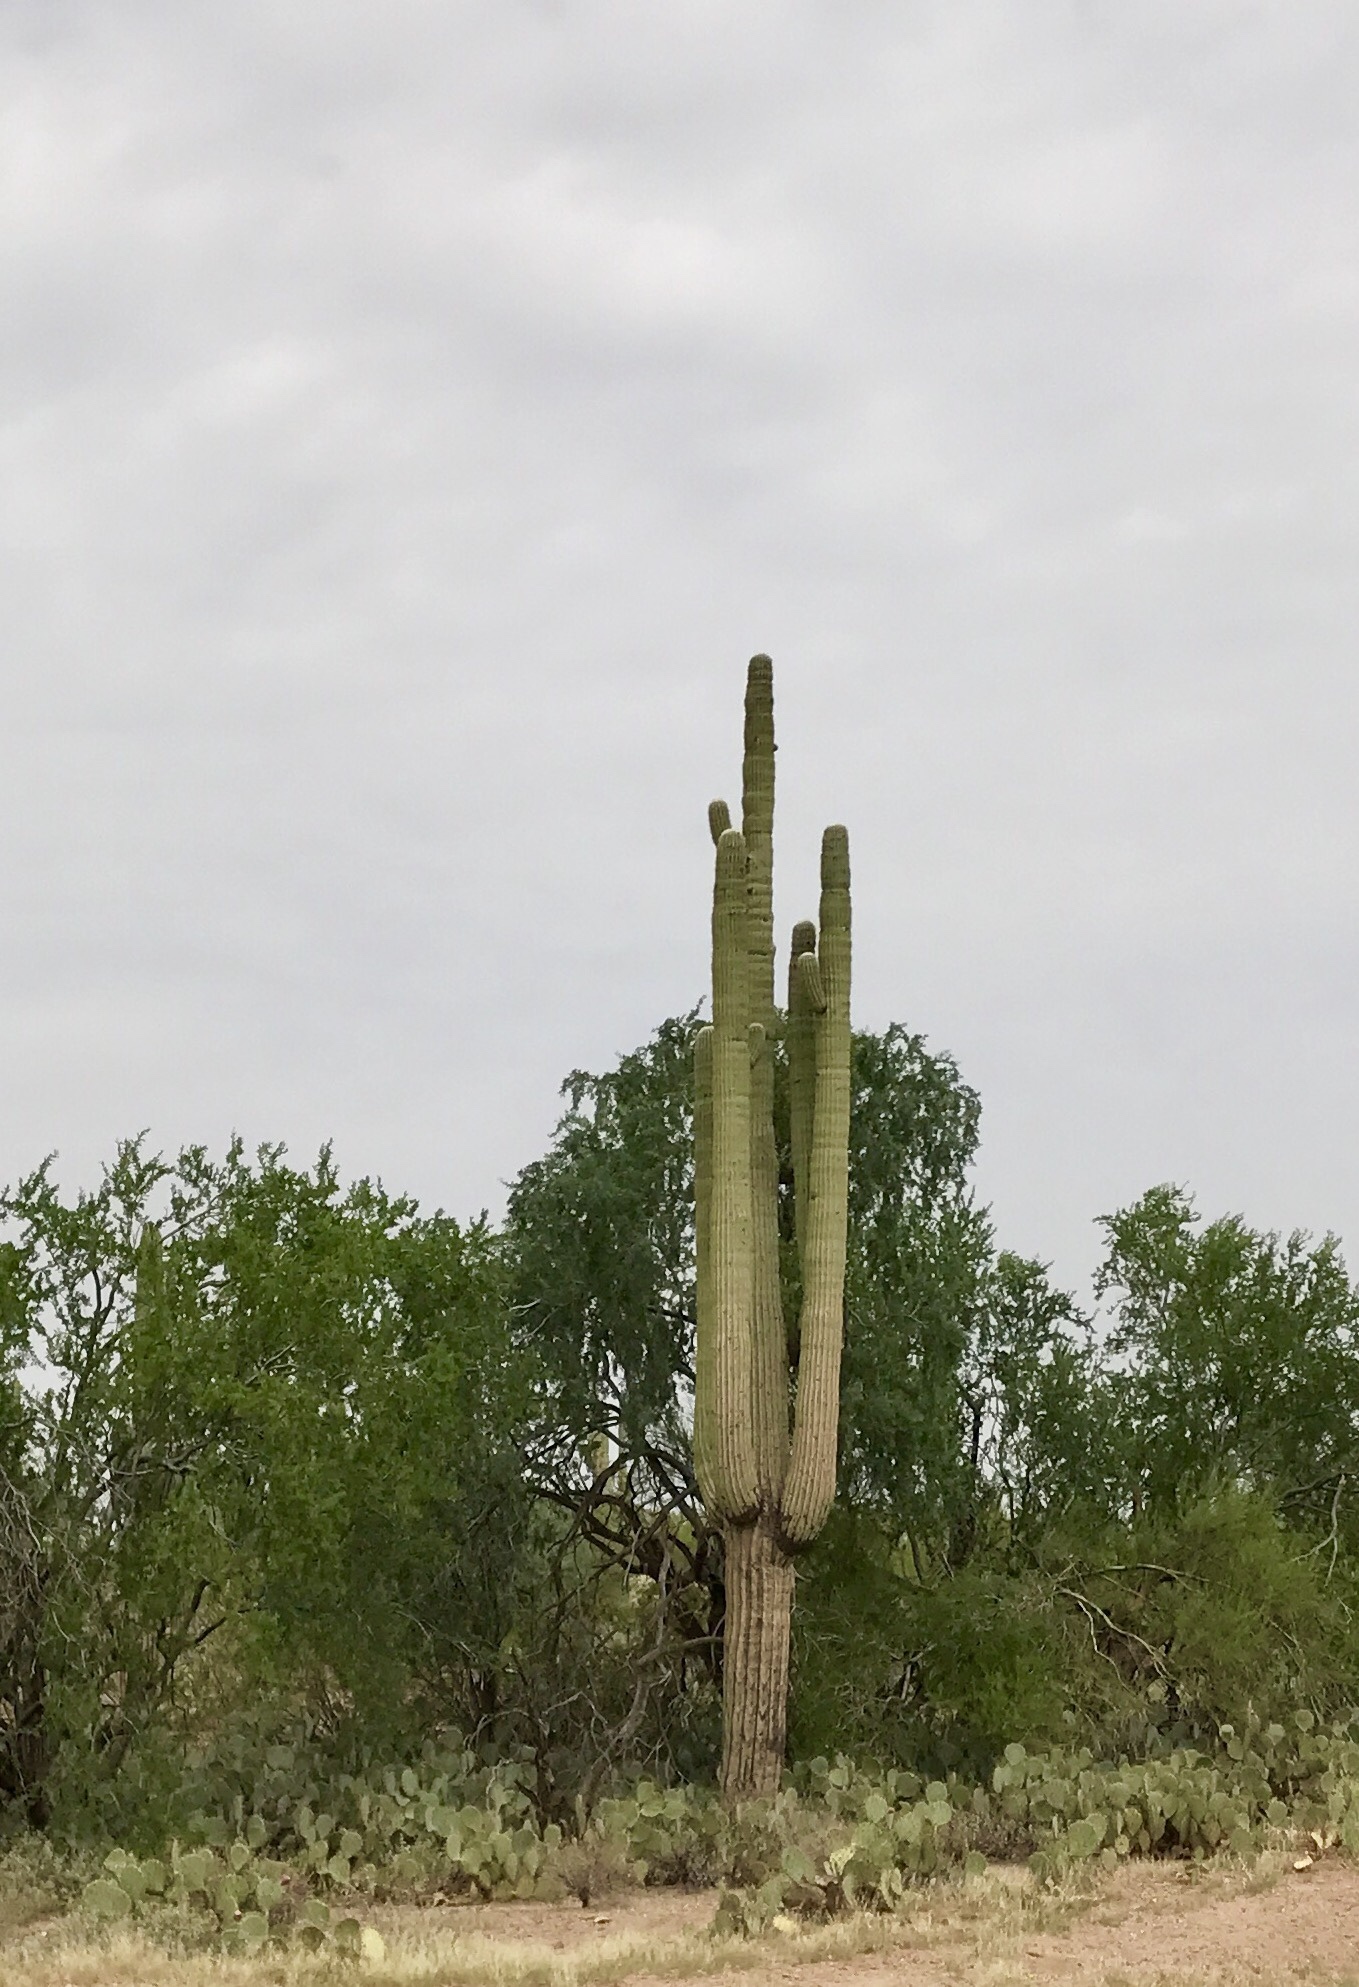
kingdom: Plantae
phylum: Tracheophyta
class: Magnoliopsida
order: Caryophyllales
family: Cactaceae
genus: Carnegiea
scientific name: Carnegiea gigantea
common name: Saguaro
